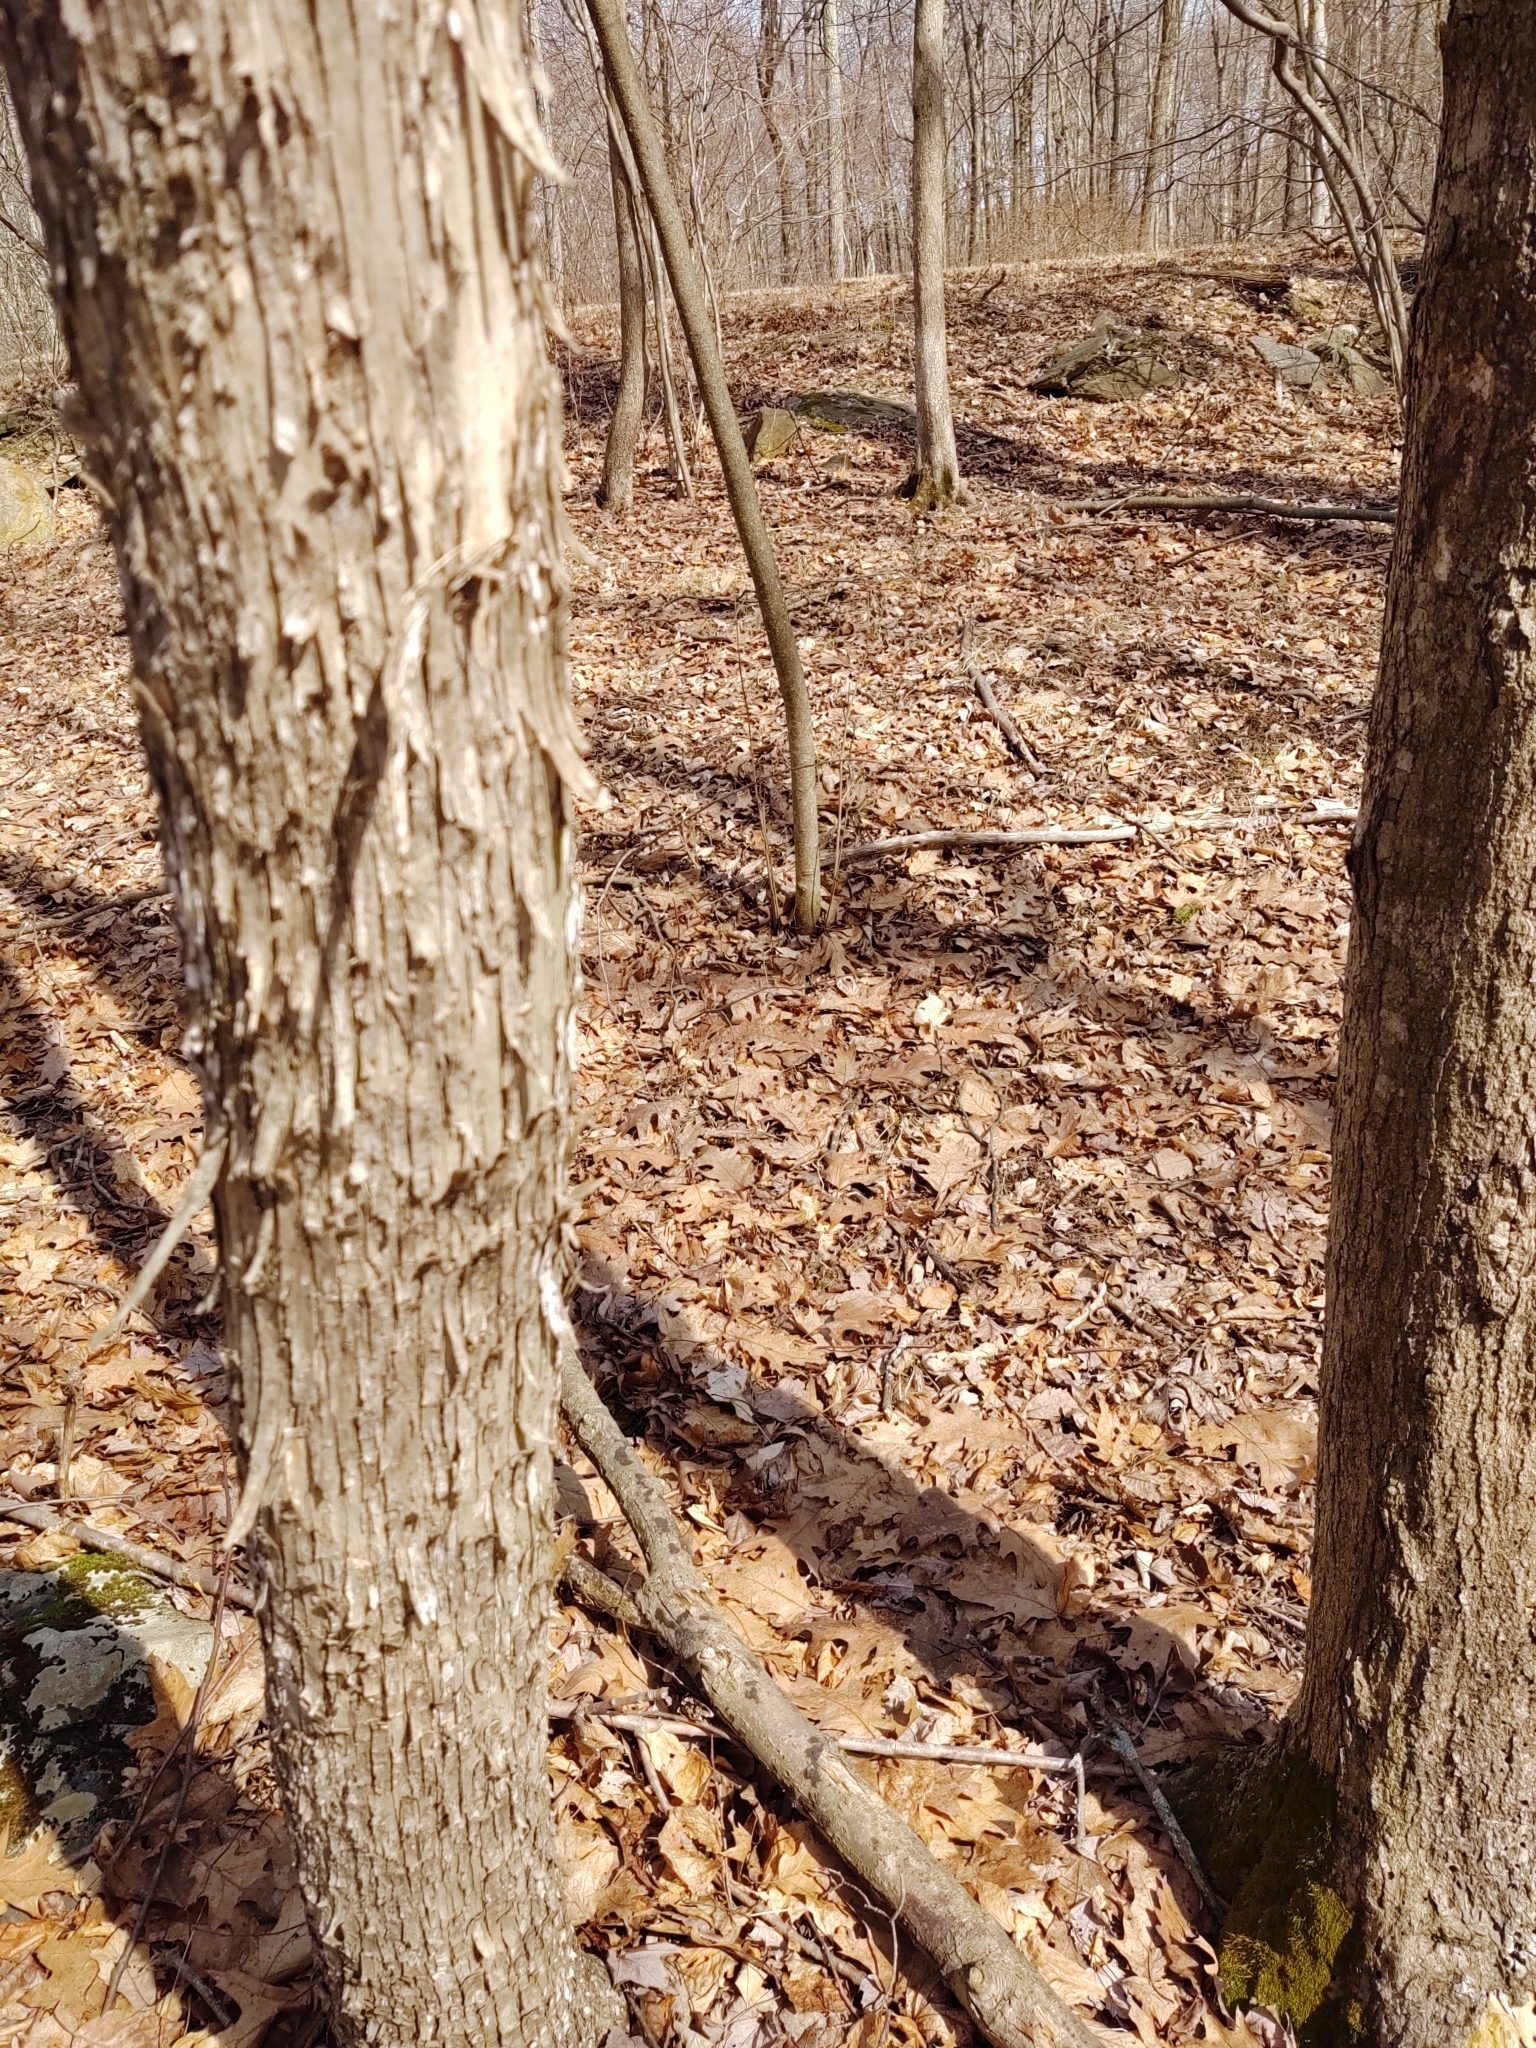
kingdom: Plantae
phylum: Tracheophyta
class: Magnoliopsida
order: Fagales
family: Betulaceae
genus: Ostrya
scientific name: Ostrya virginiana
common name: Ironwood
